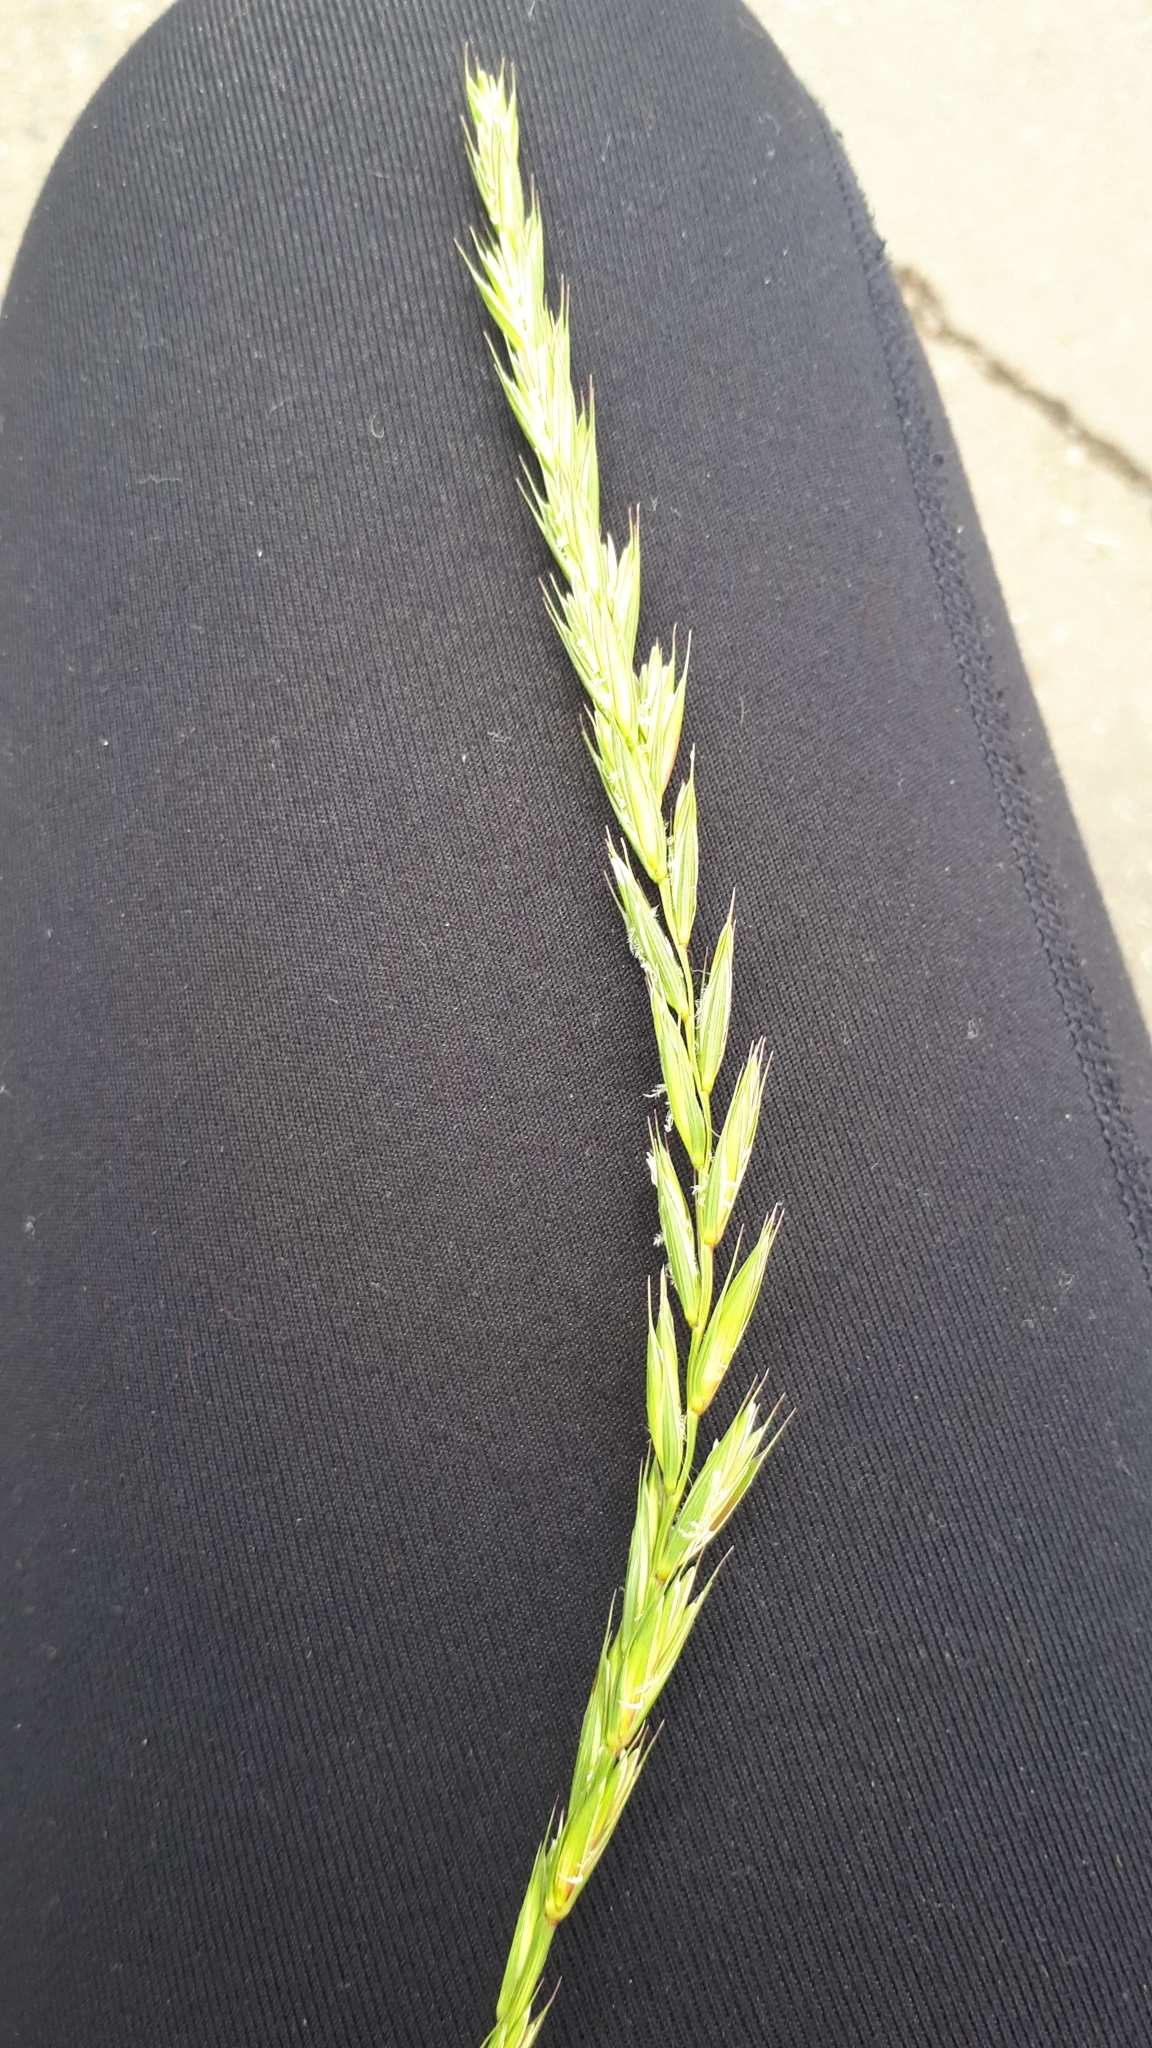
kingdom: Plantae
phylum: Tracheophyta
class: Liliopsida
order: Poales
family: Poaceae
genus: Elymus
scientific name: Elymus repens
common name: Quackgrass
